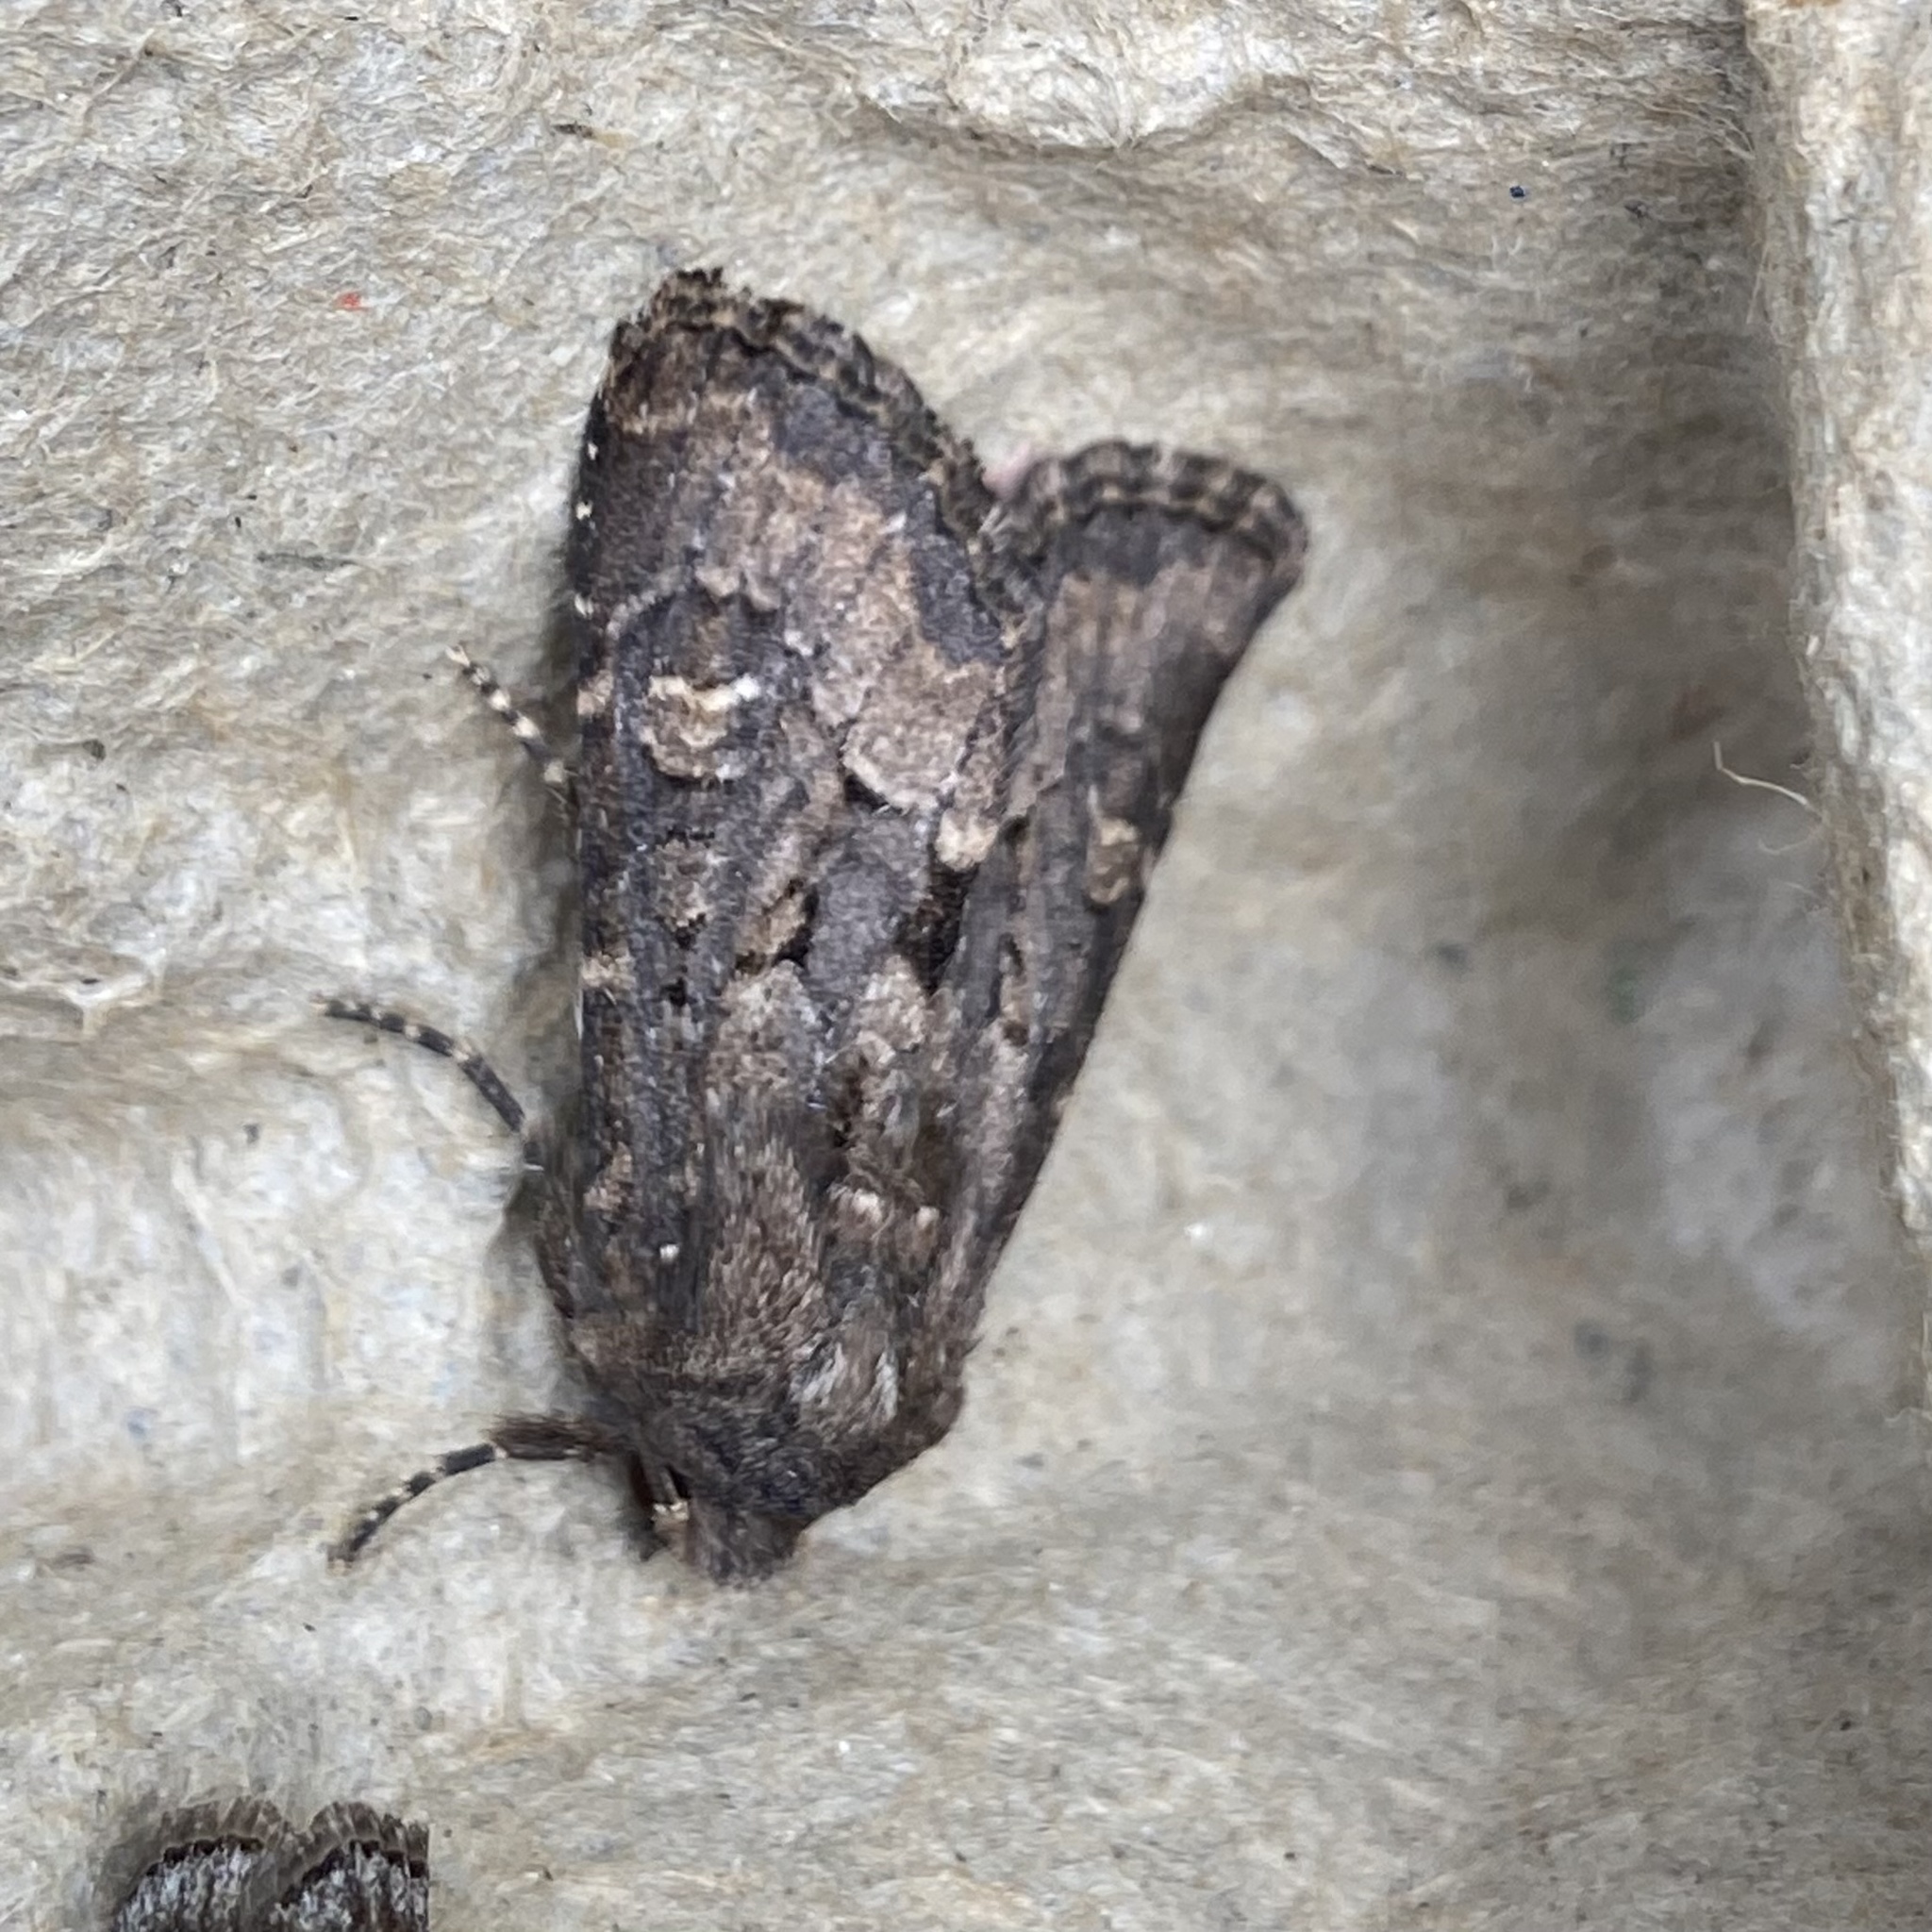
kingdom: Animalia
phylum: Arthropoda
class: Insecta
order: Lepidoptera
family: Noctuidae
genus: Luperina
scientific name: Luperina testacea
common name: Flounced rustic
